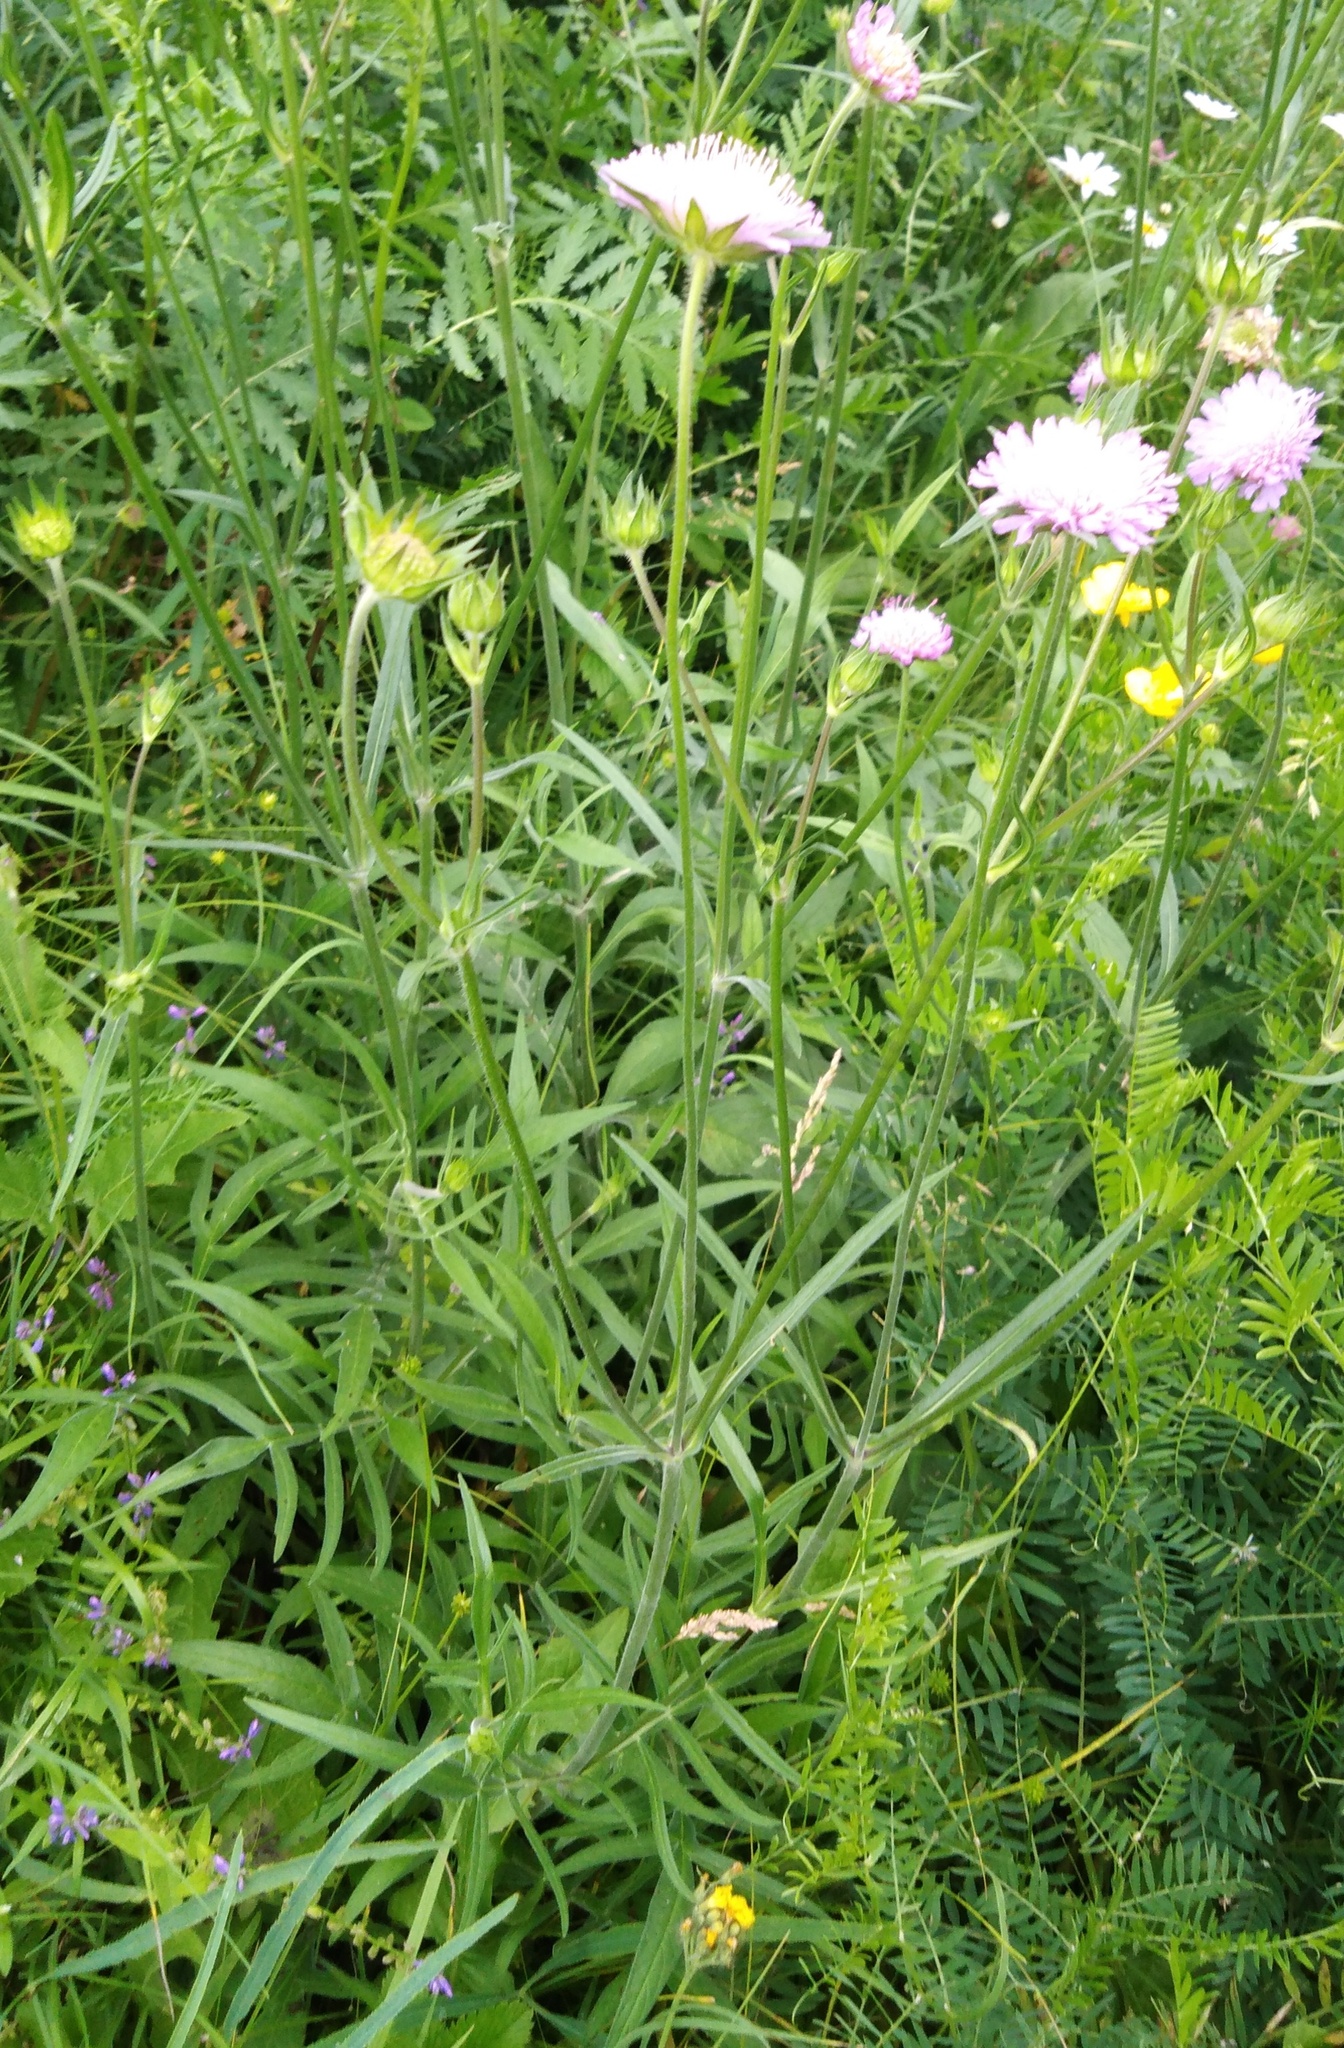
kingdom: Plantae
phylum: Tracheophyta
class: Magnoliopsida
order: Dipsacales
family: Caprifoliaceae
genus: Knautia
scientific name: Knautia arvensis
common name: Field scabiosa
